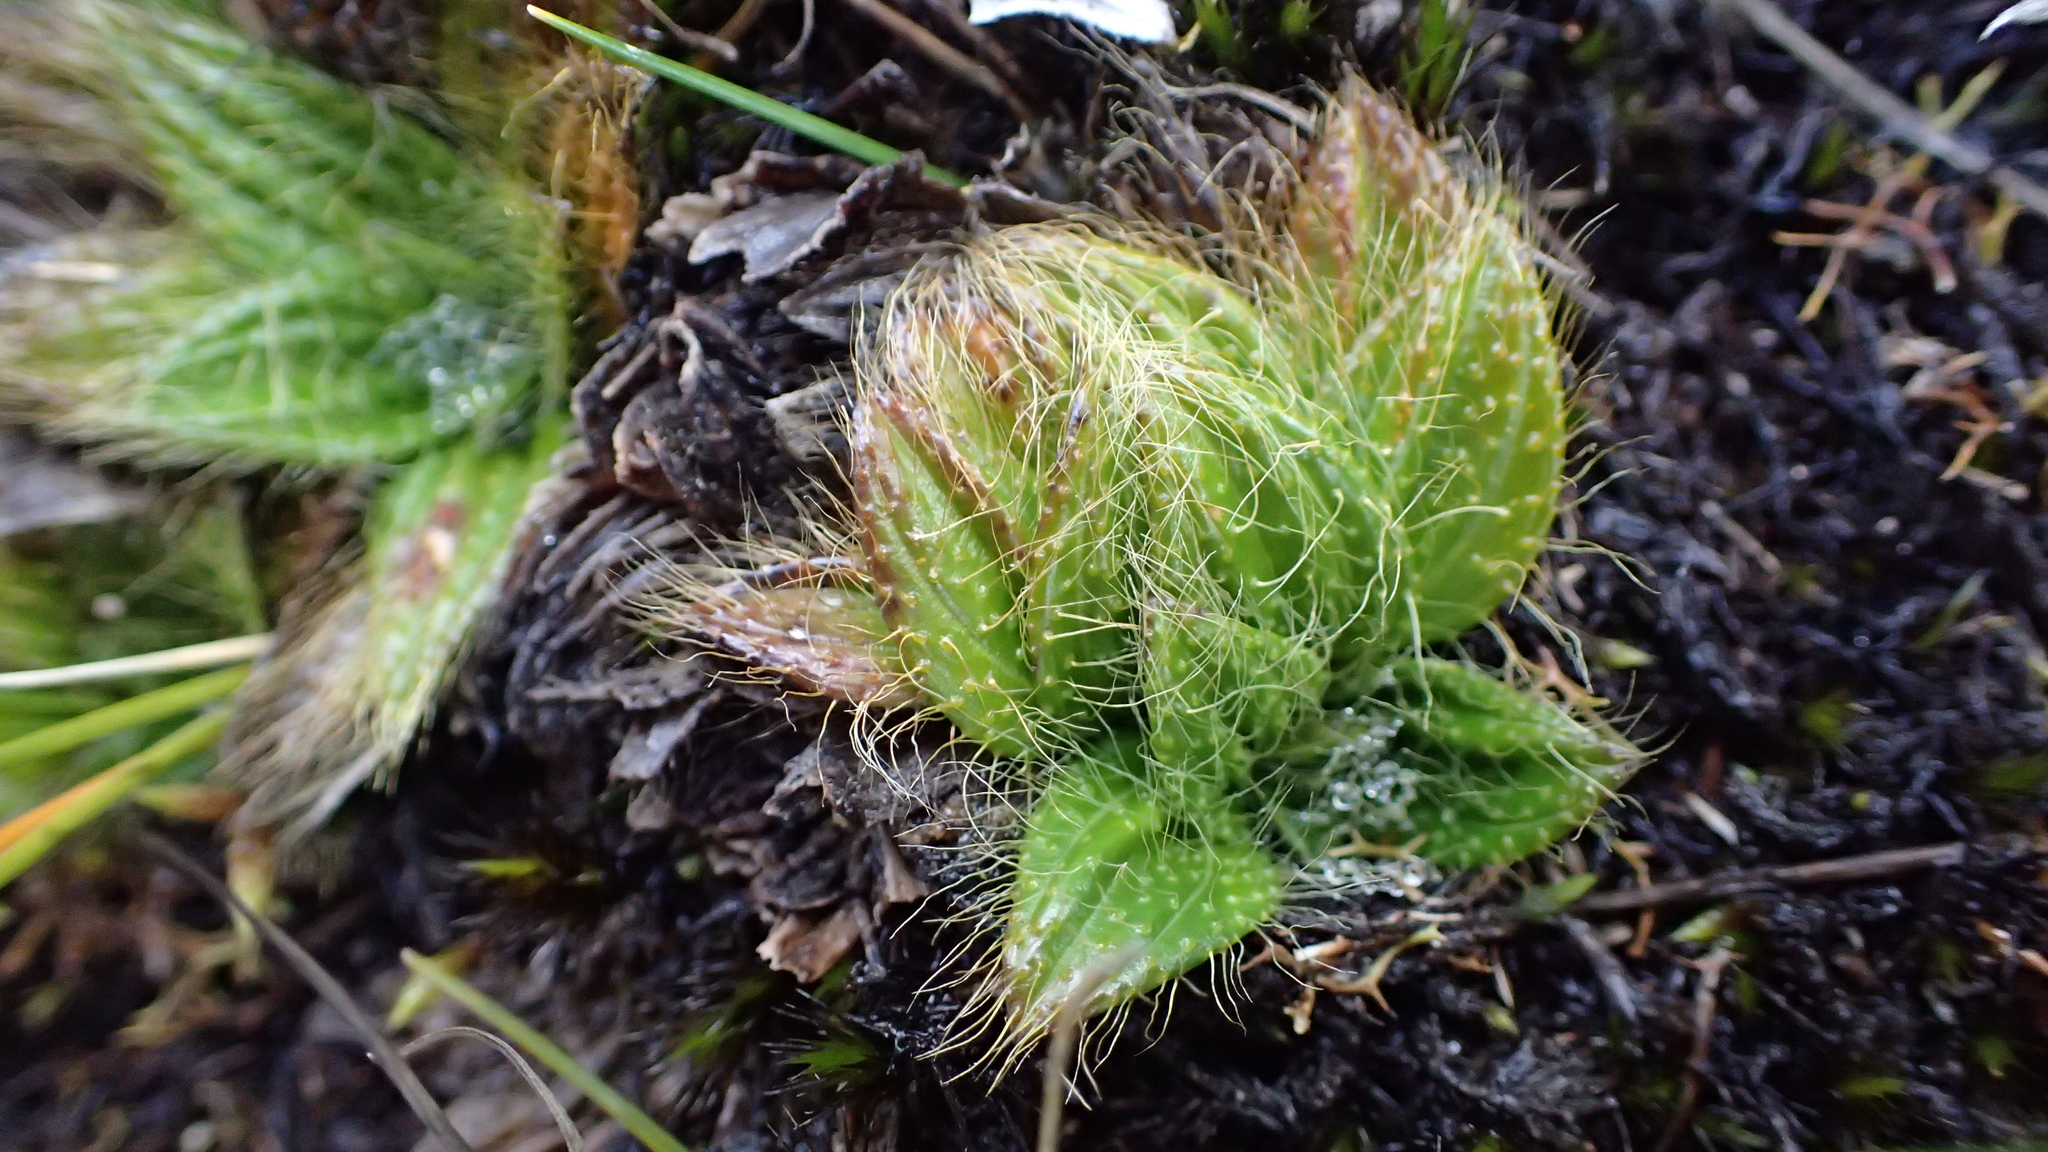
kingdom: Plantae
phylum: Tracheophyta
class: Magnoliopsida
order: Myrtales
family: Melastomataceae
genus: Castratella
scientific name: Castratella piloselloides
